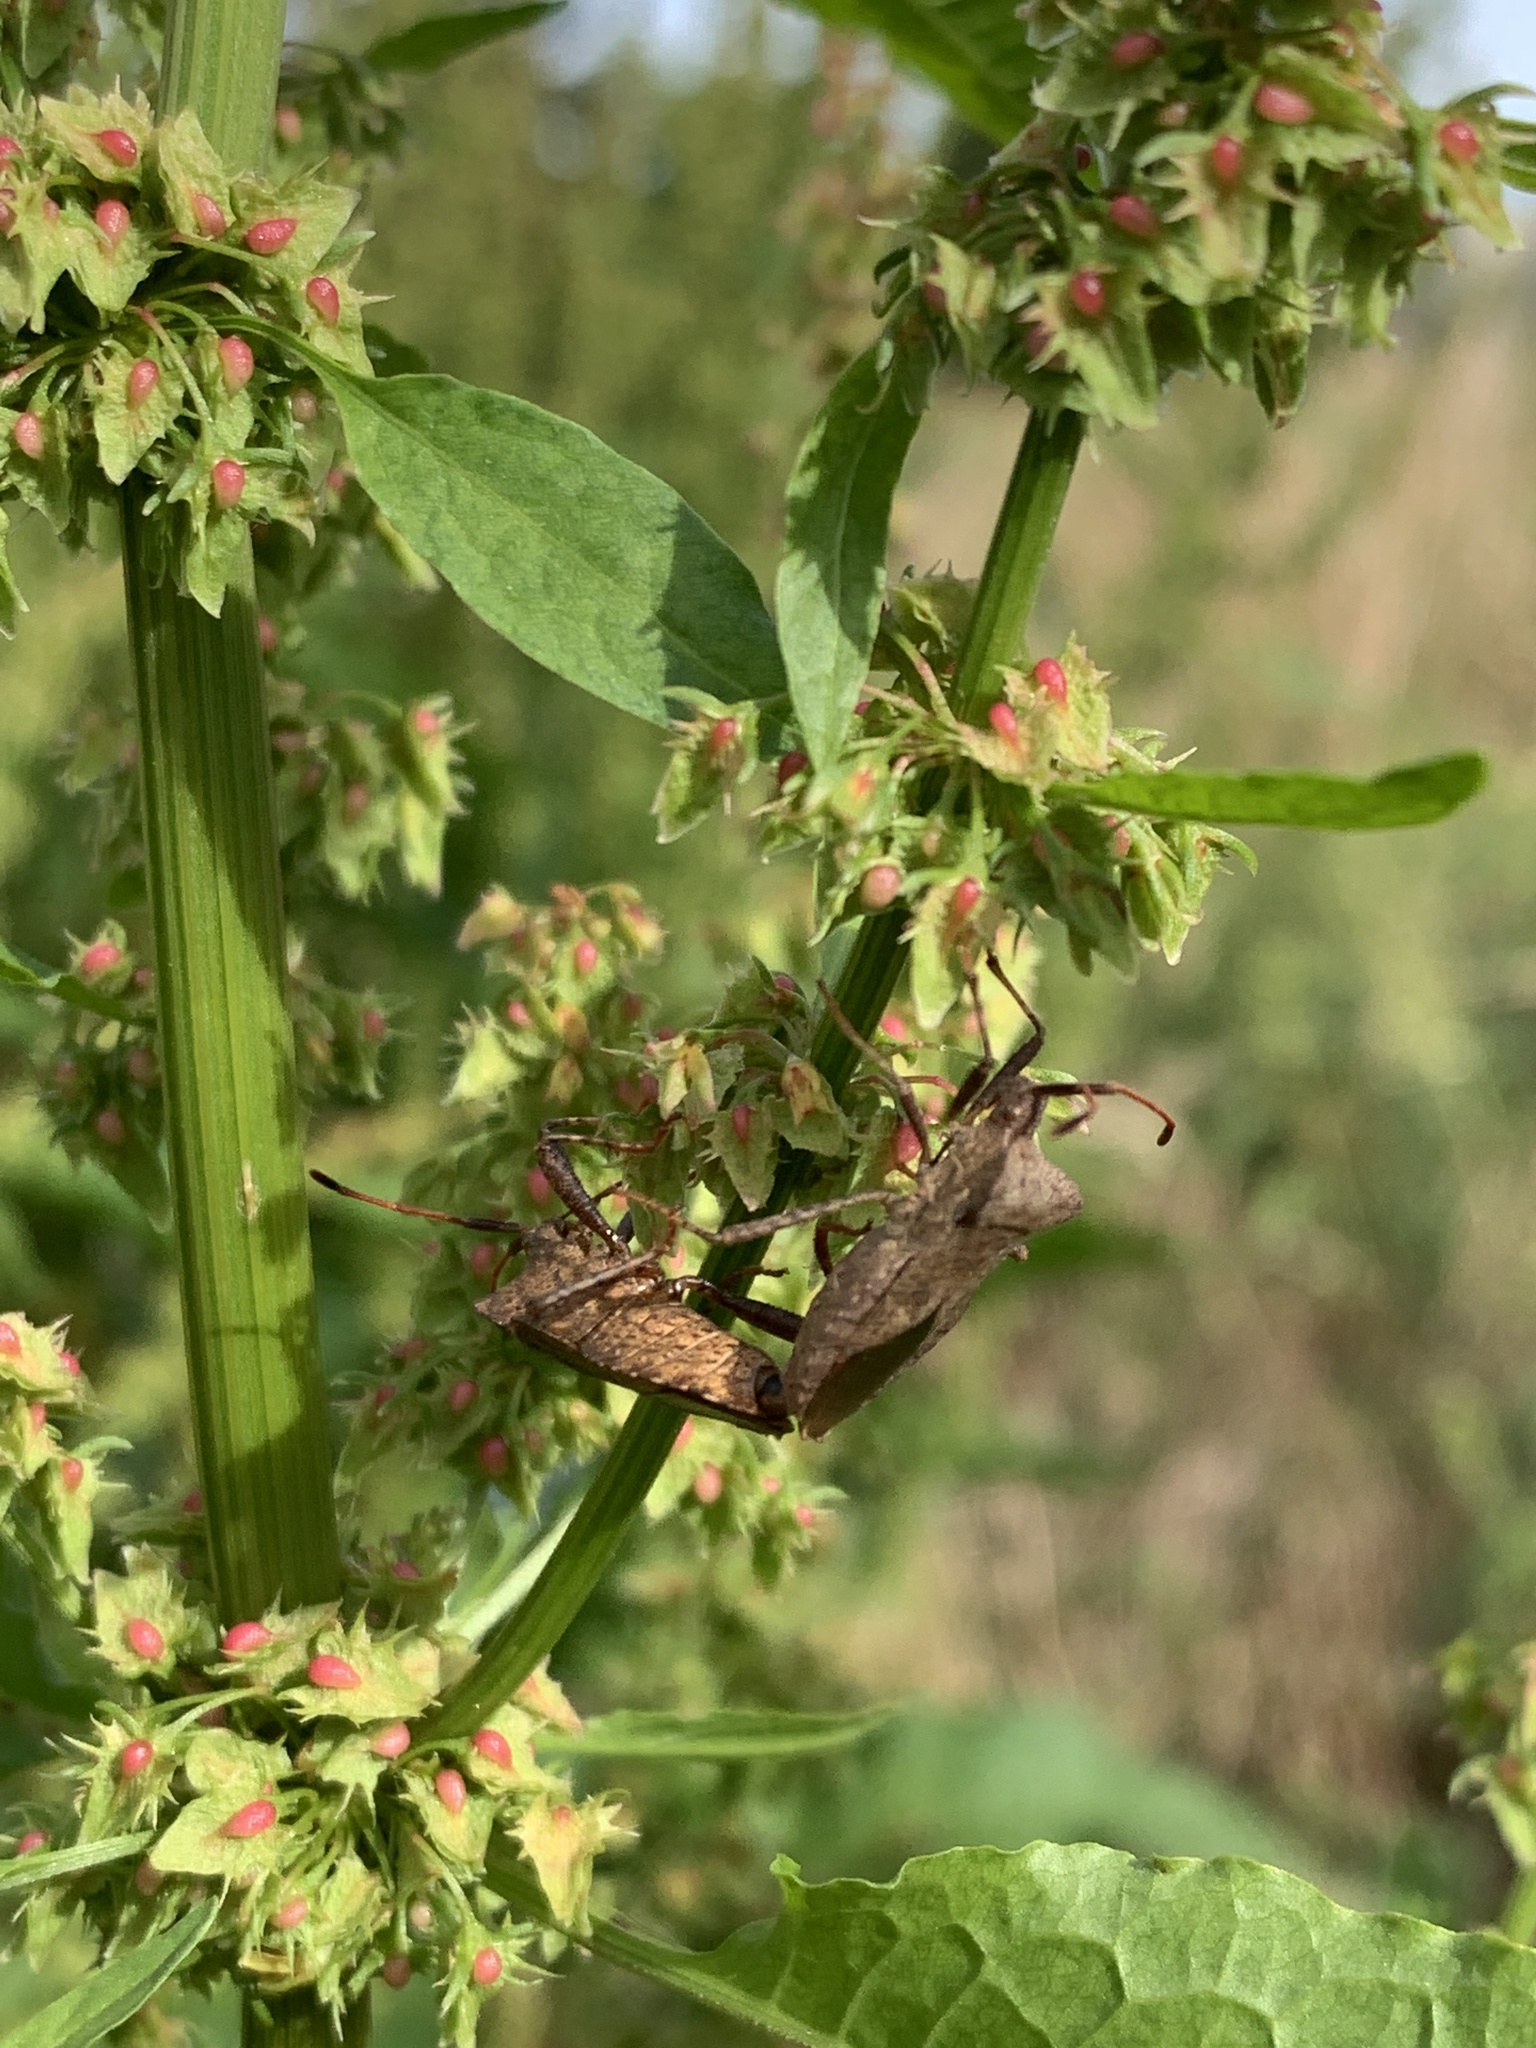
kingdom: Animalia
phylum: Arthropoda
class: Insecta
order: Hemiptera
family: Coreidae
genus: Coreus
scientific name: Coreus marginatus
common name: Dock bug
